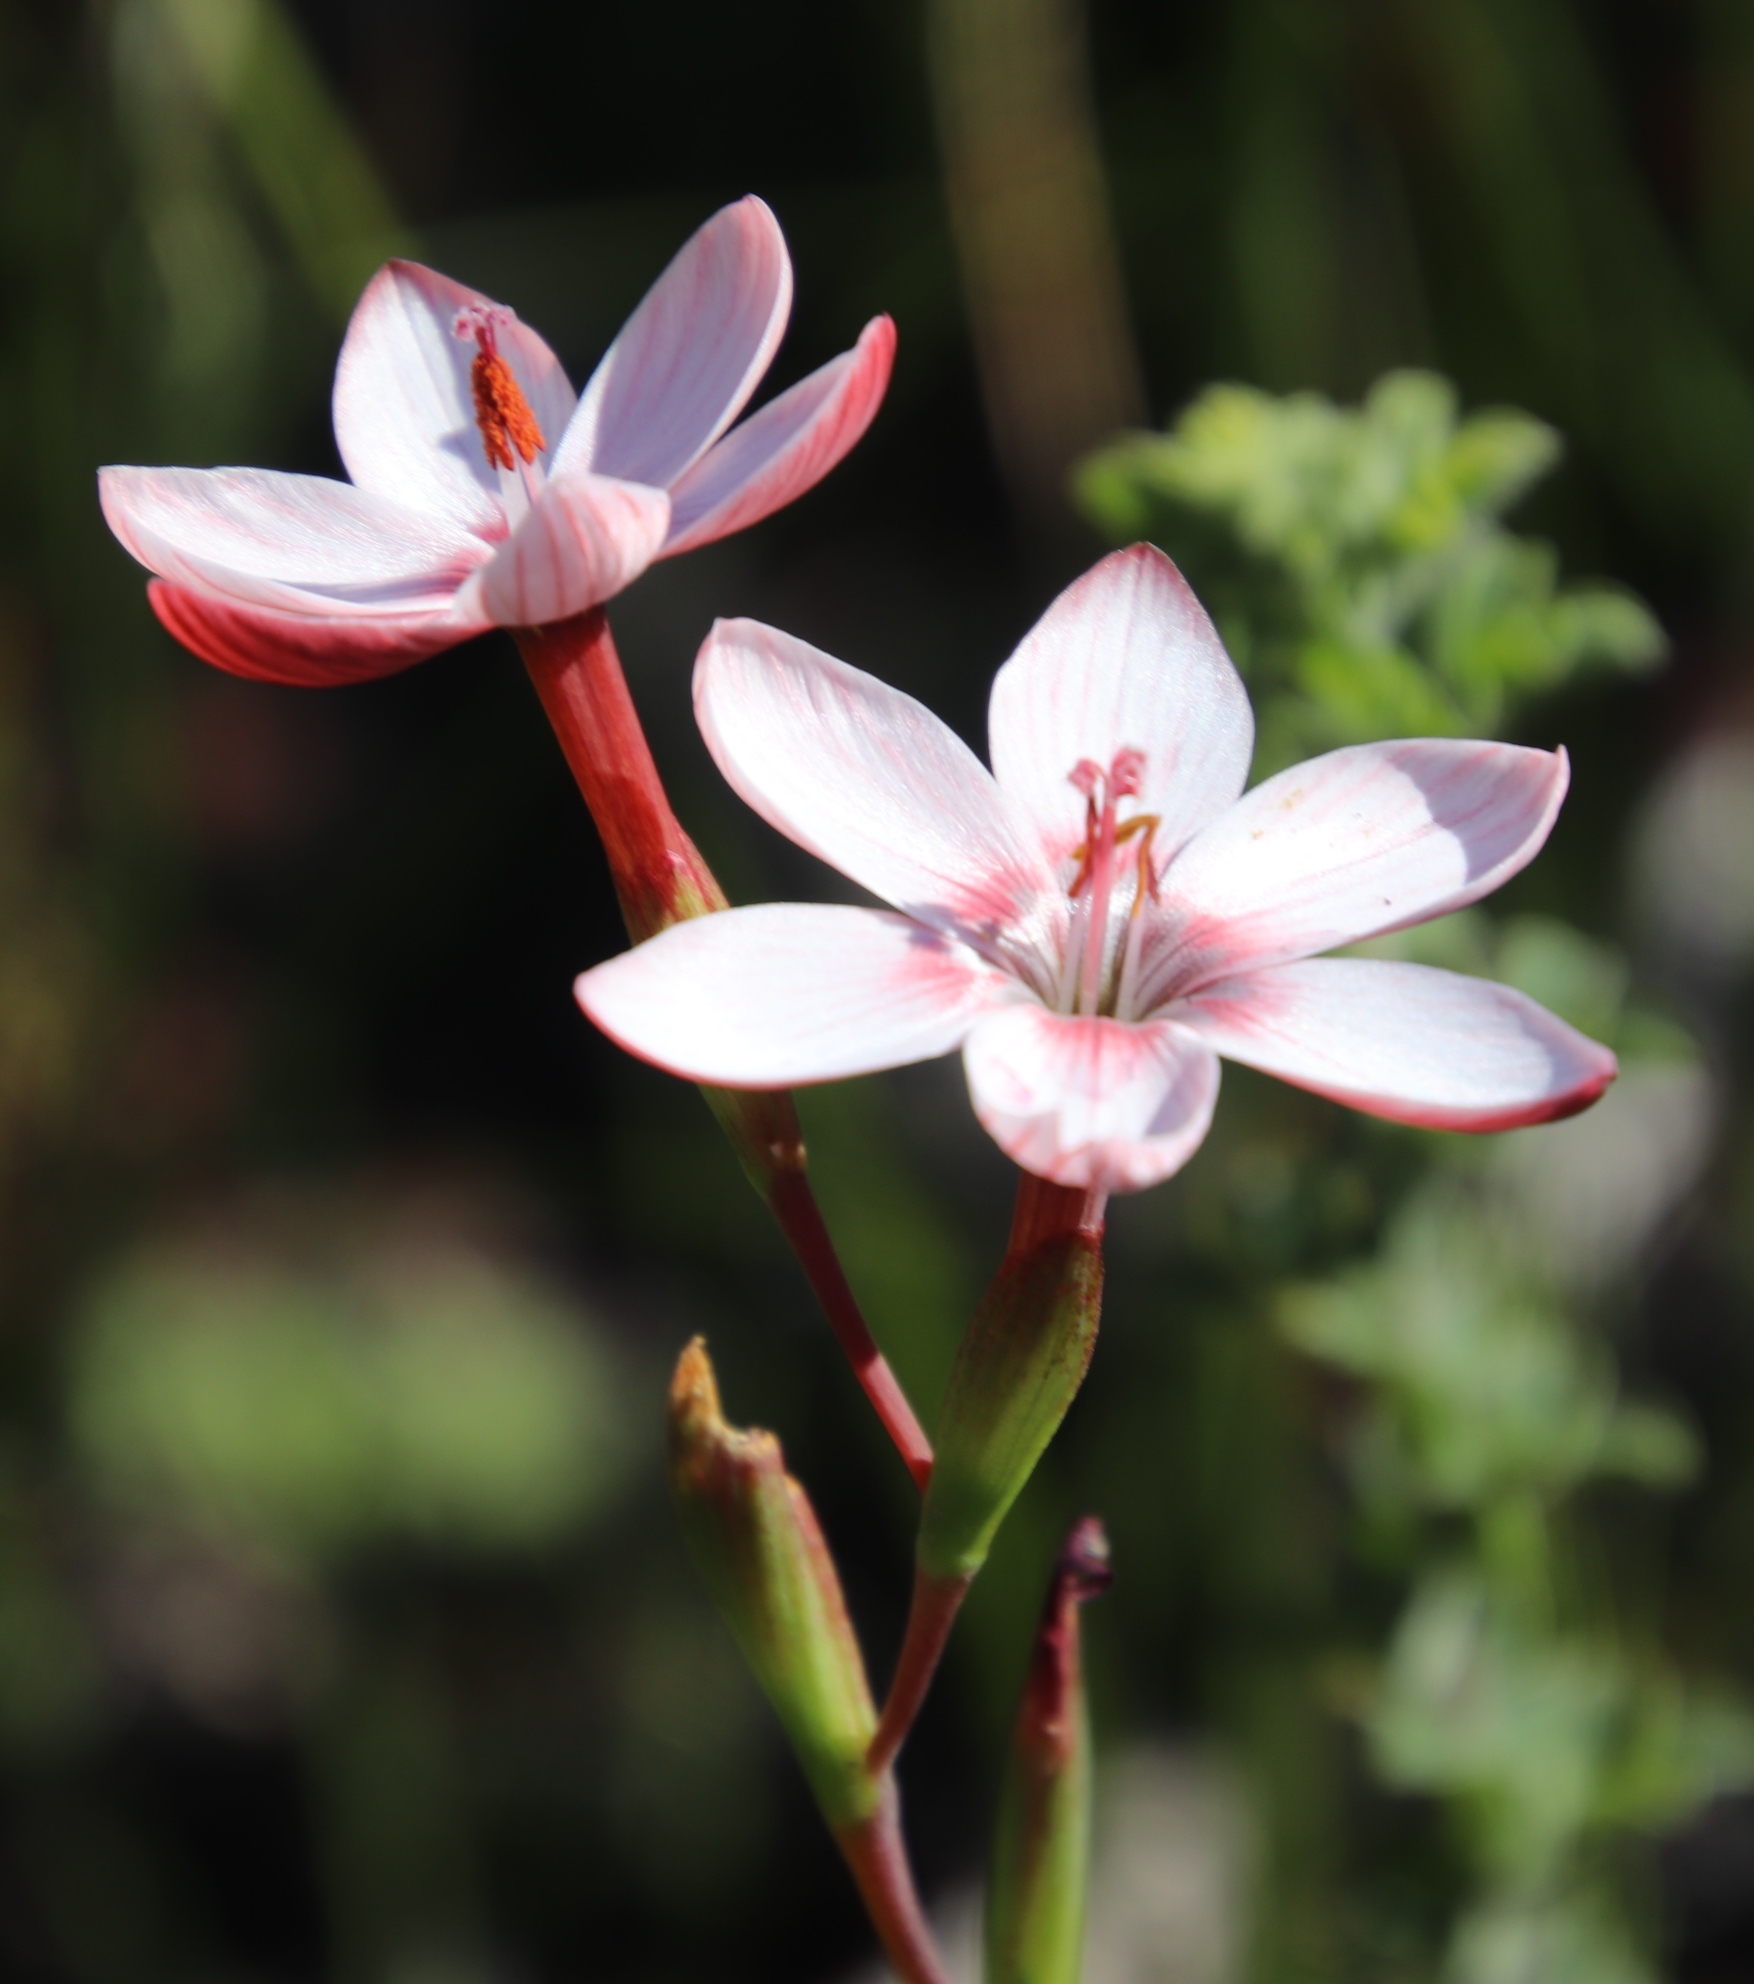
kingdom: Plantae
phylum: Tracheophyta
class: Liliopsida
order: Asparagales
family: Iridaceae
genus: Geissorhiza
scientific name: Geissorhiza ovata
